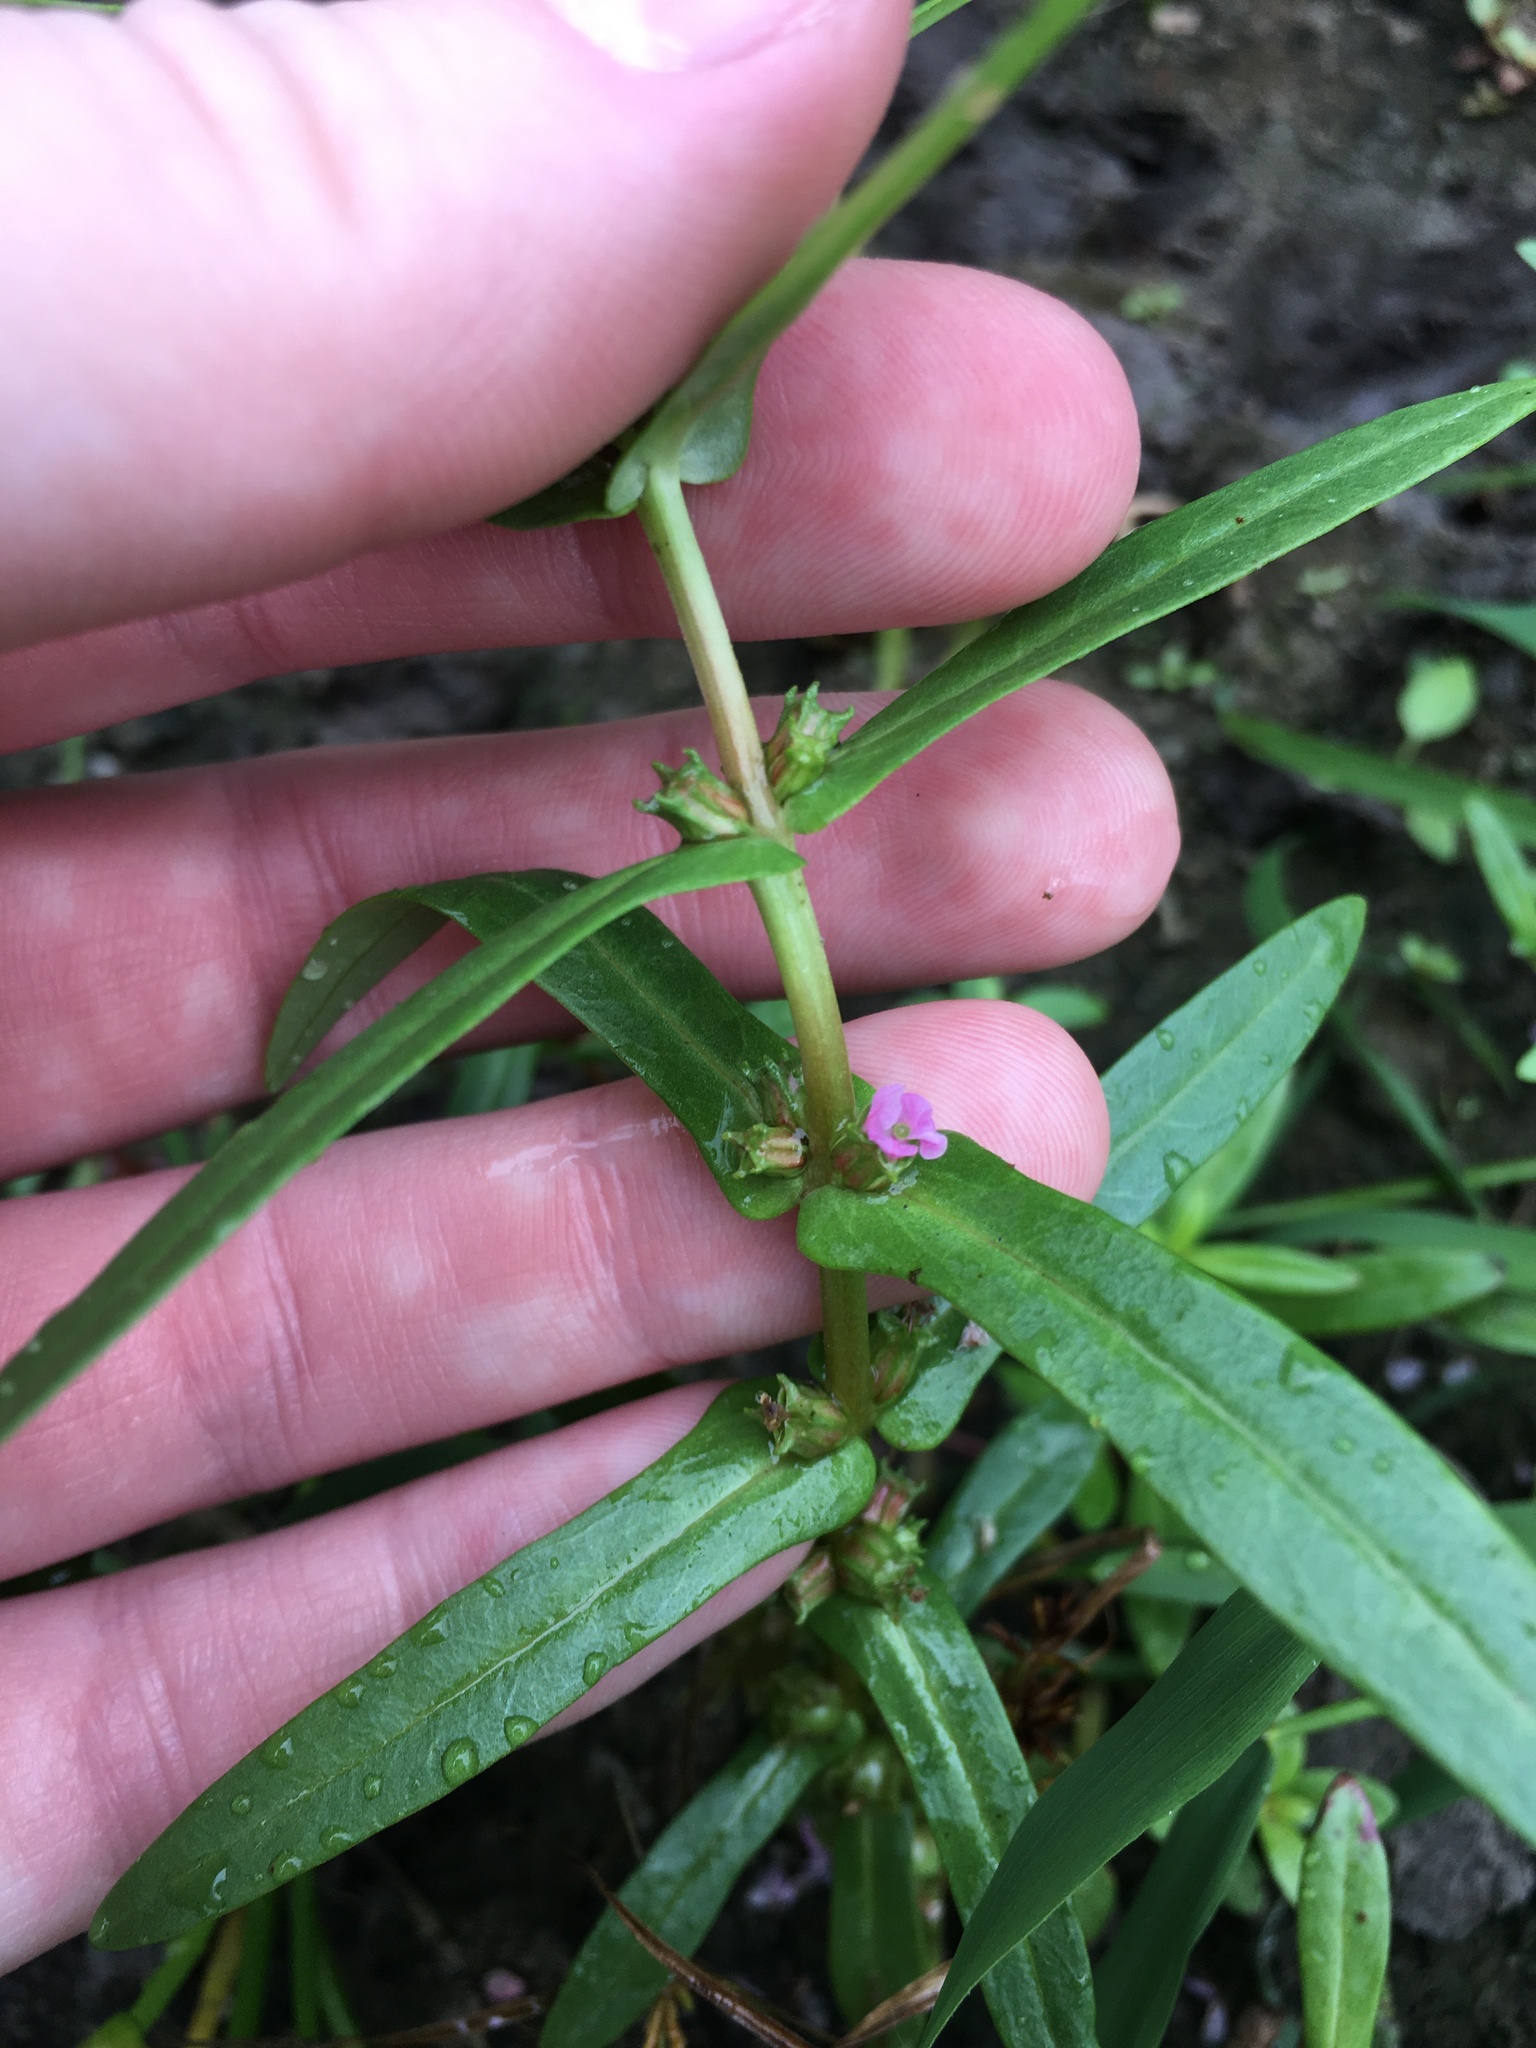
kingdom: Plantae
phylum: Tracheophyta
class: Magnoliopsida
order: Myrtales
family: Lythraceae
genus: Ammannia
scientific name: Ammannia robusta
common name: Grand ammannia
